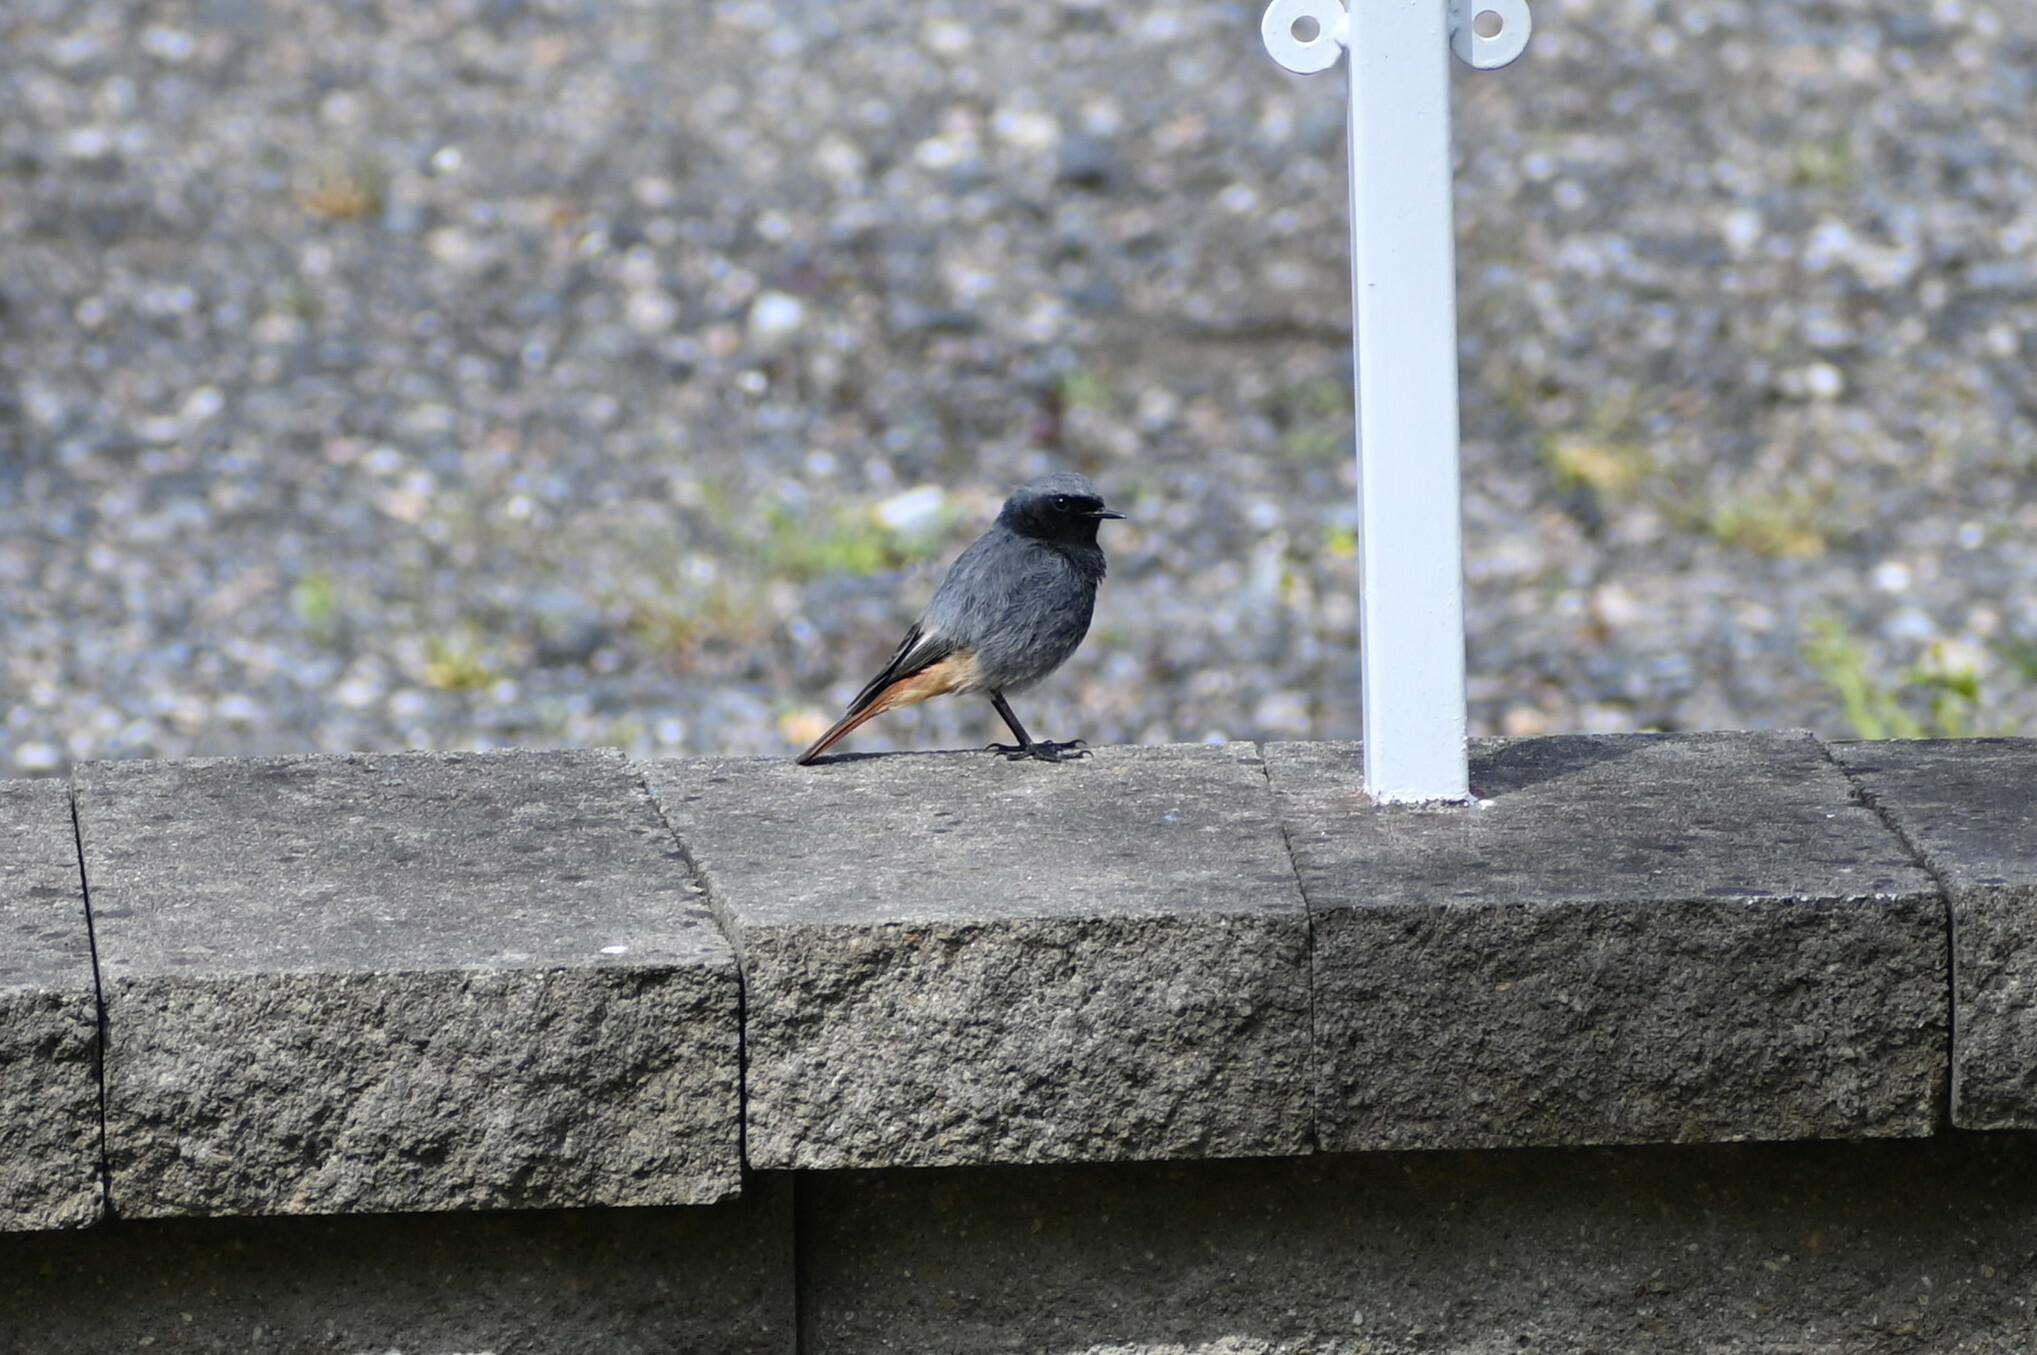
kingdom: Animalia
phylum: Chordata
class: Aves
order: Passeriformes
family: Muscicapidae
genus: Phoenicurus
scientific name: Phoenicurus ochruros
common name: Black redstart
